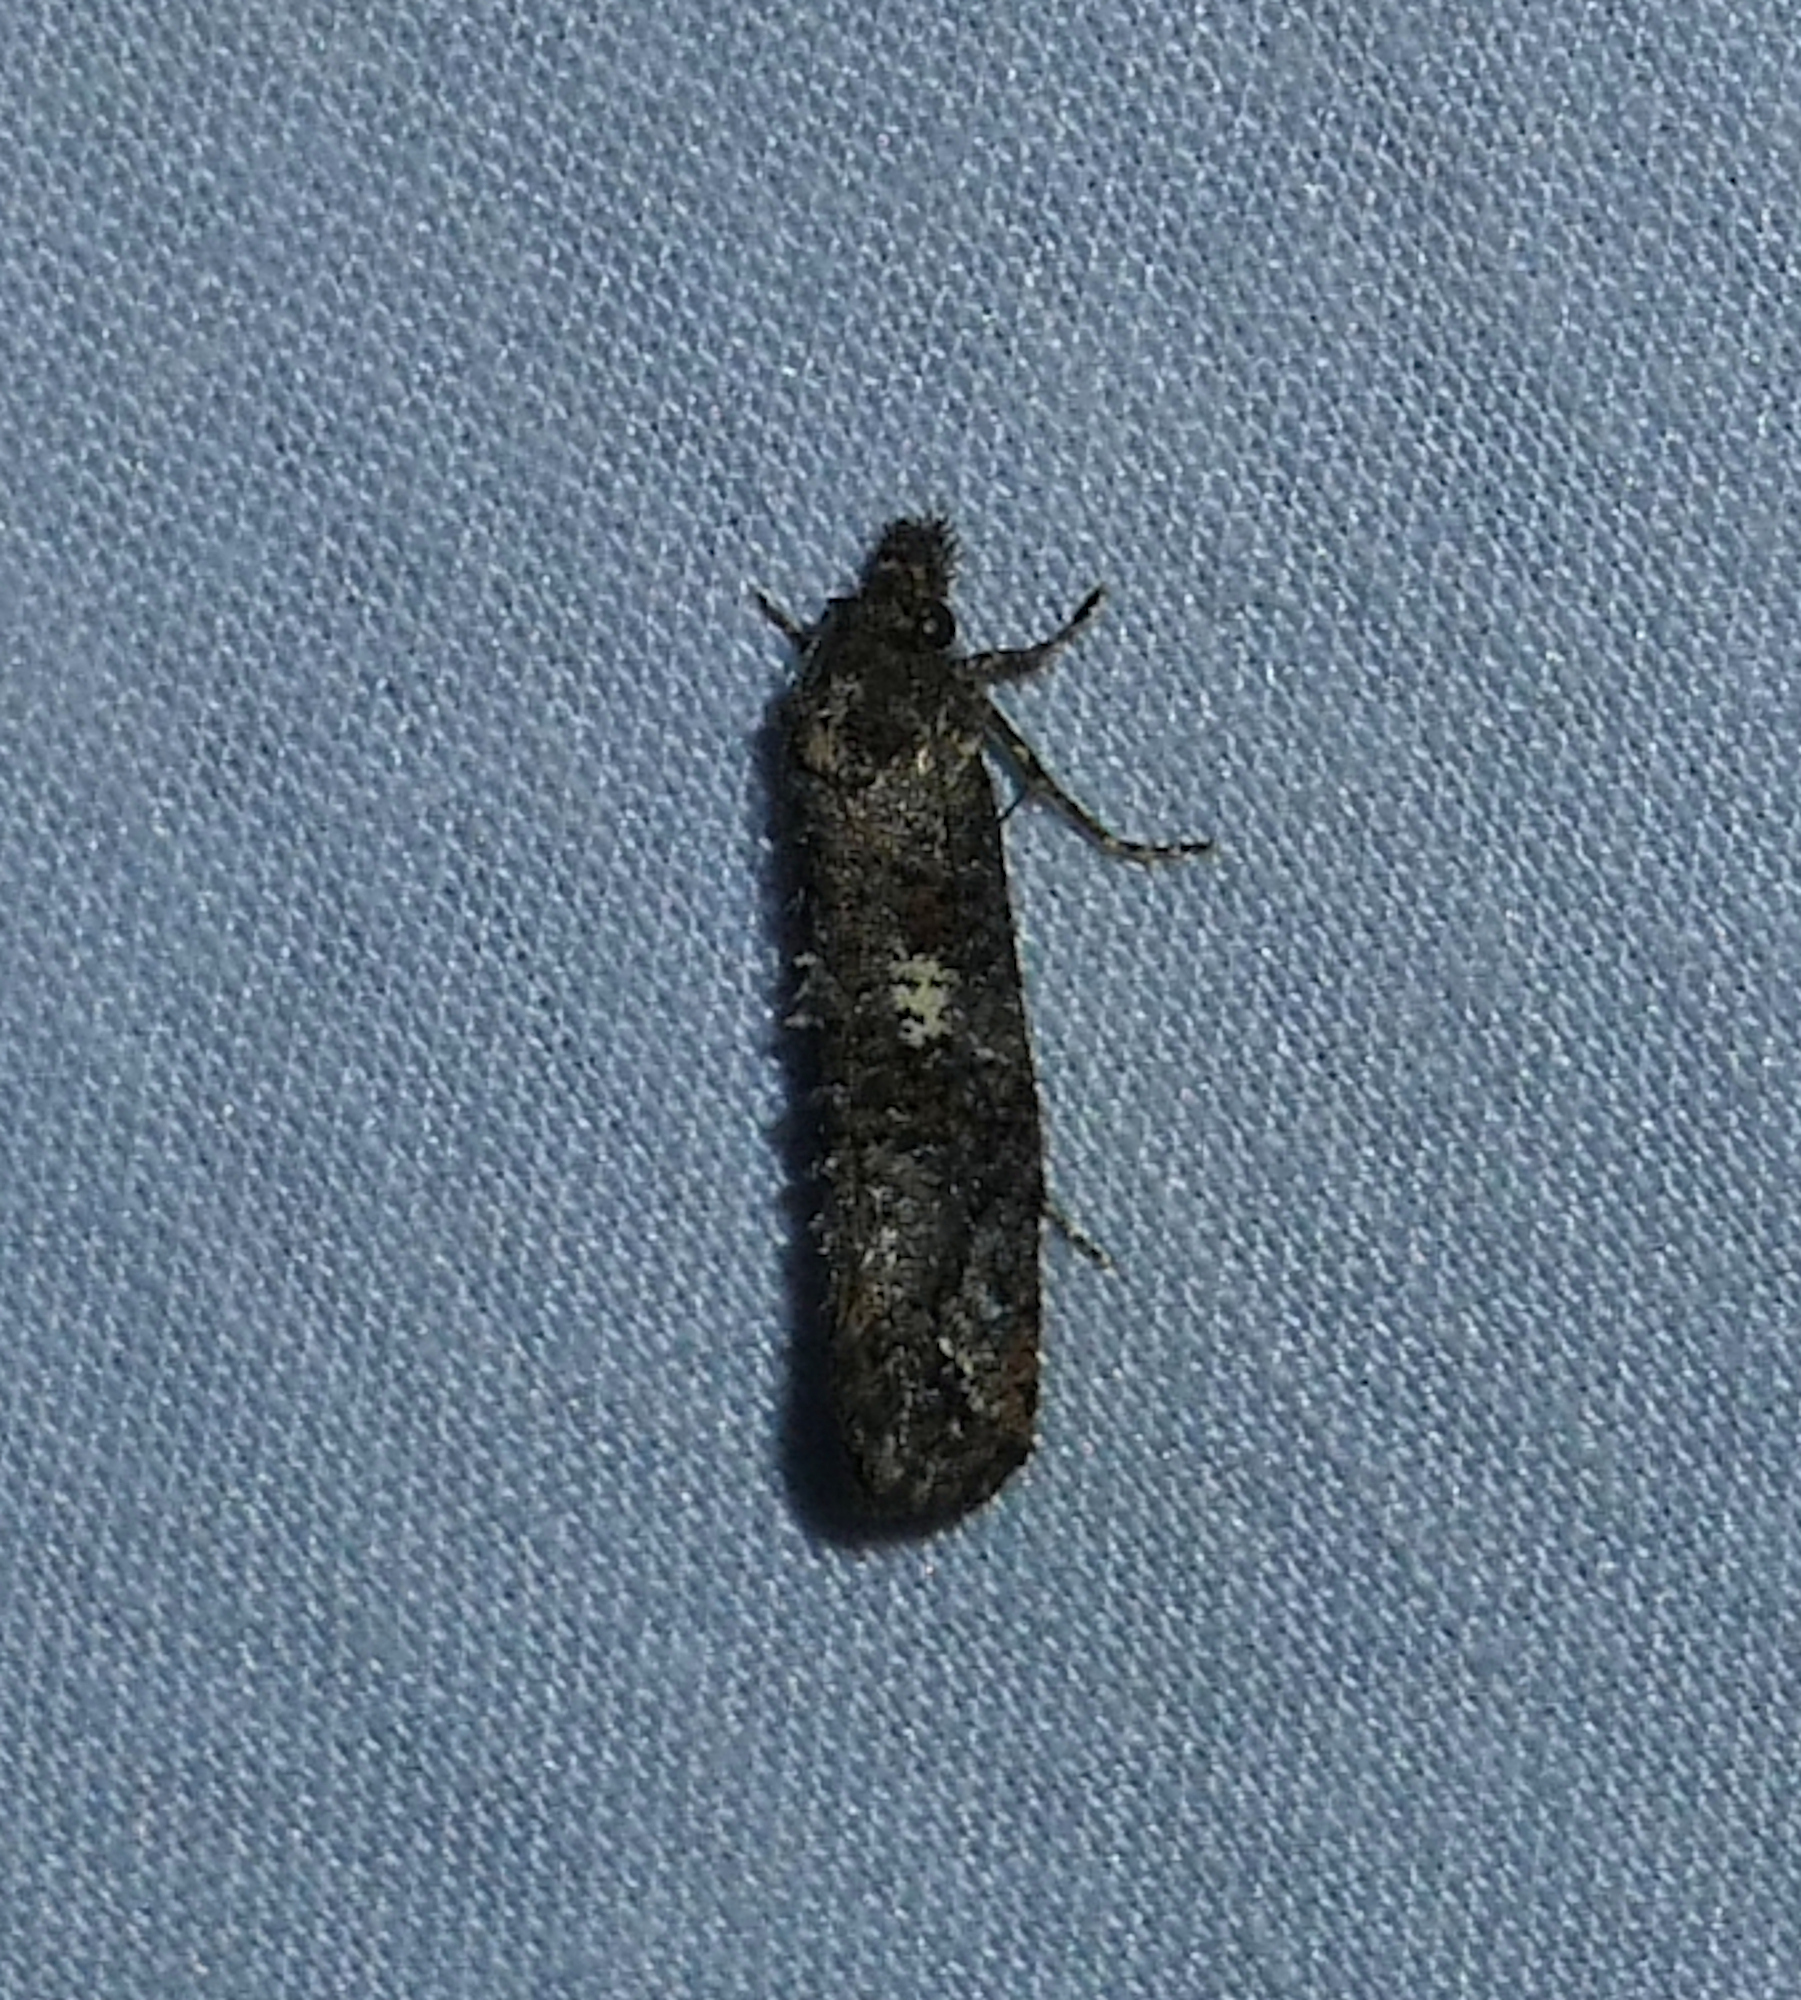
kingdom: Animalia
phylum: Arthropoda
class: Insecta
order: Lepidoptera
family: Tineidae
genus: Acrolophus
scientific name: Acrolophus cressoni
